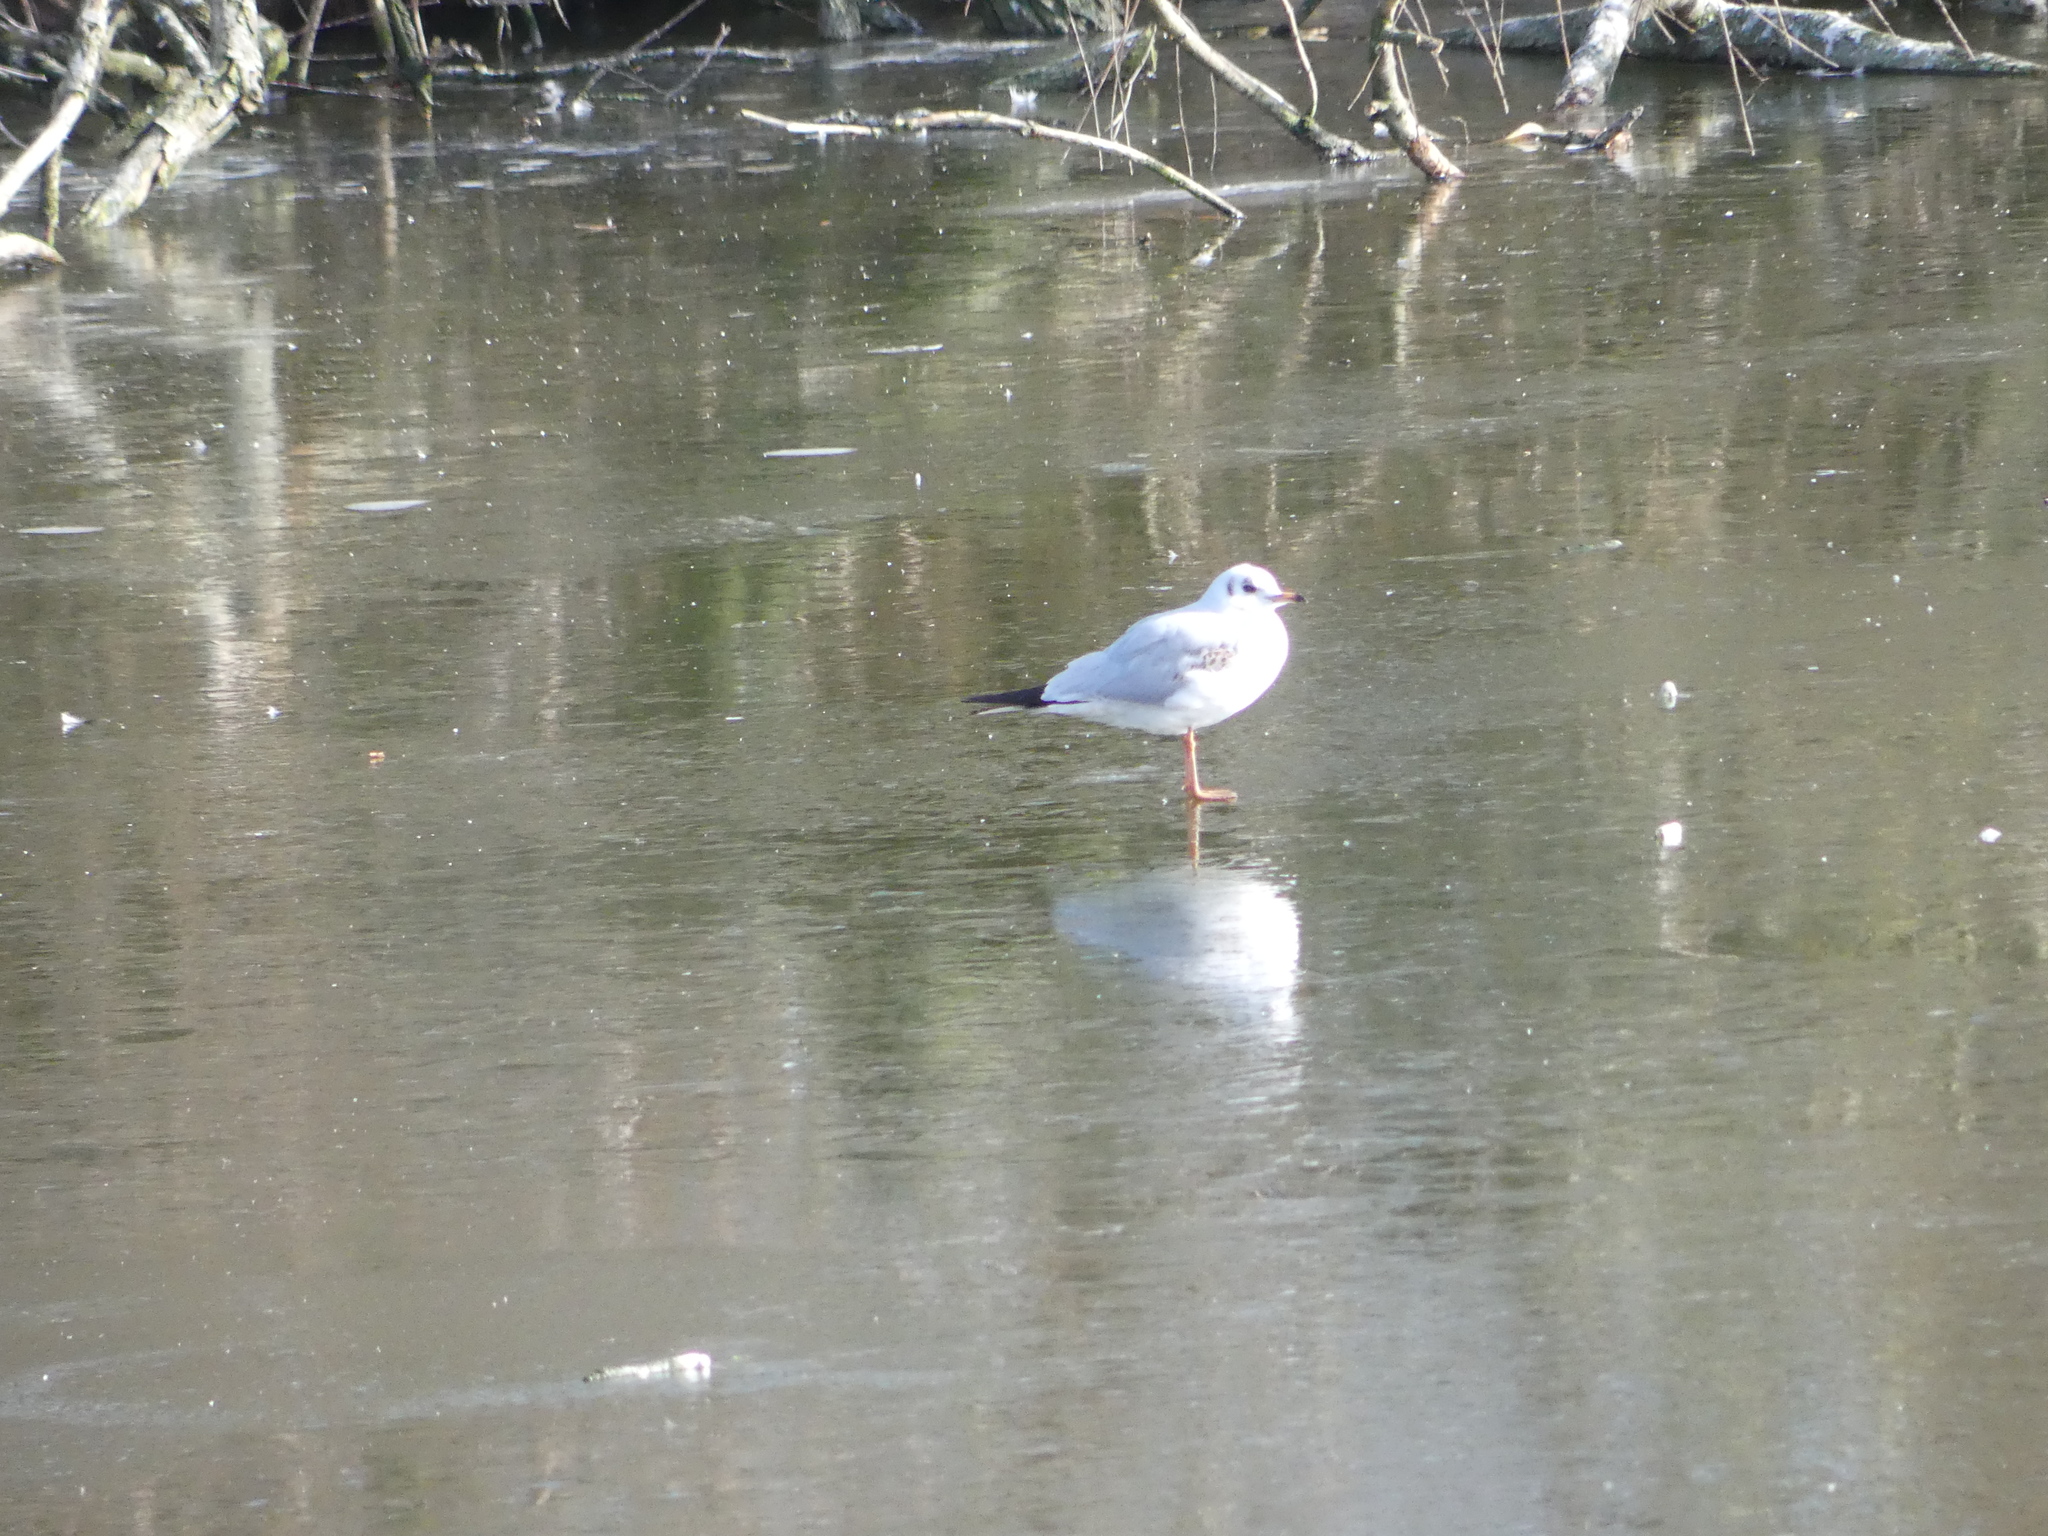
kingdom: Animalia
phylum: Chordata
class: Aves
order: Charadriiformes
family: Laridae
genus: Chroicocephalus
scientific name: Chroicocephalus ridibundus
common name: Black-headed gull
